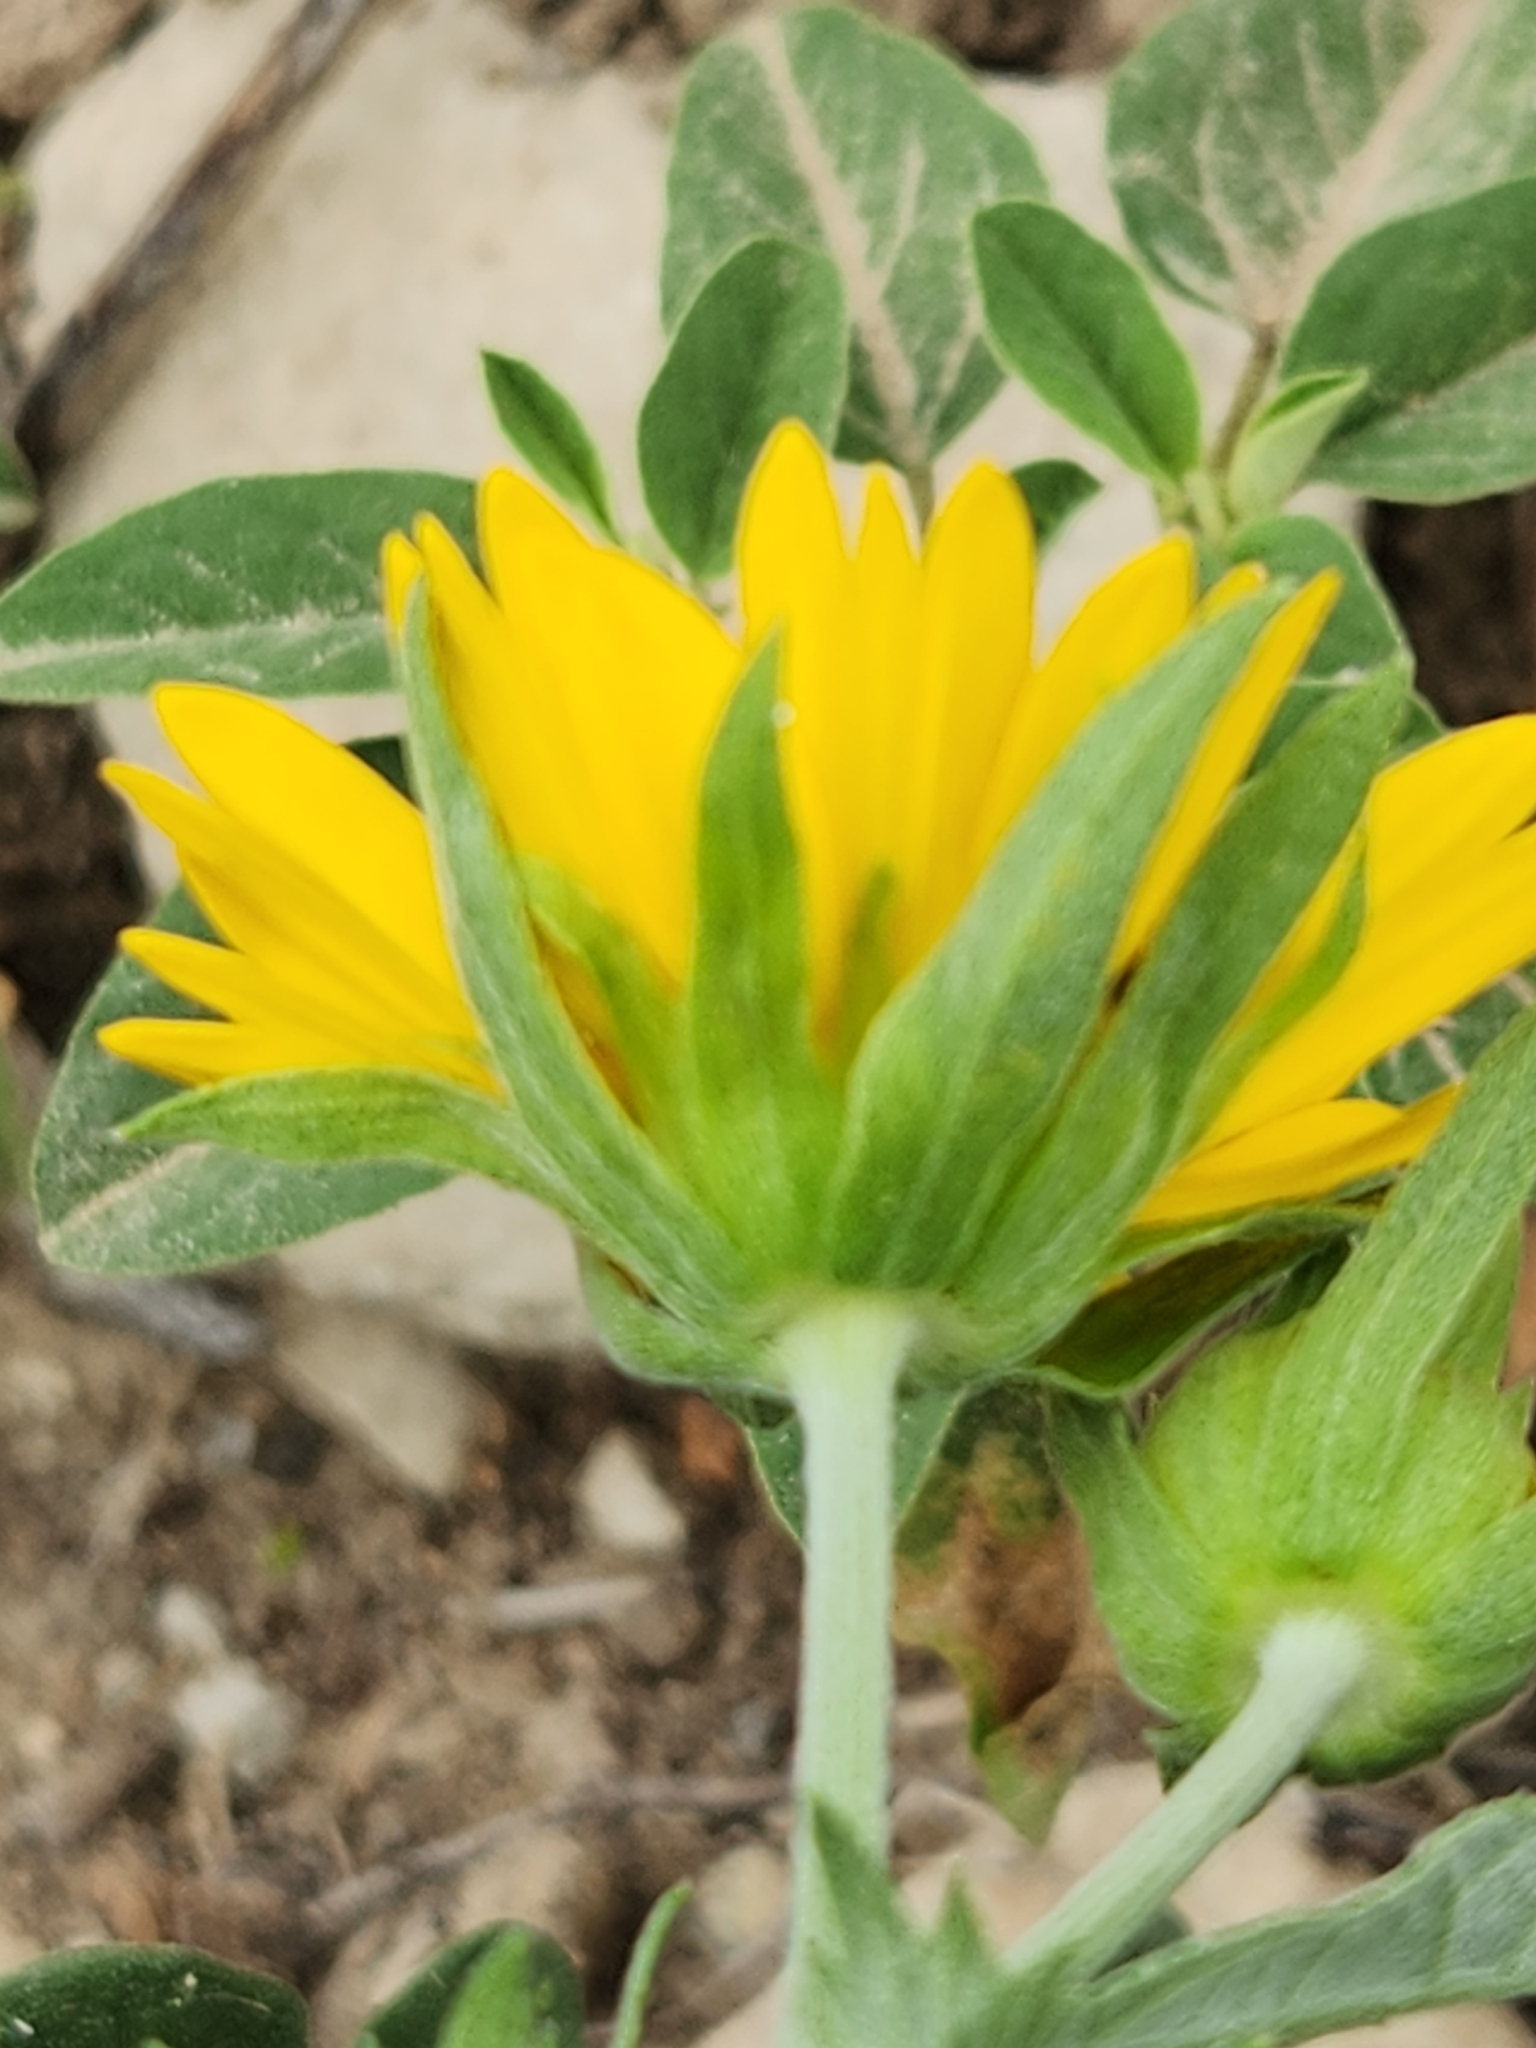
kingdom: Plantae
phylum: Tracheophyta
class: Magnoliopsida
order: Asterales
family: Asteraceae
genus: Verbesina
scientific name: Verbesina encelioides
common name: Golden crownbeard
